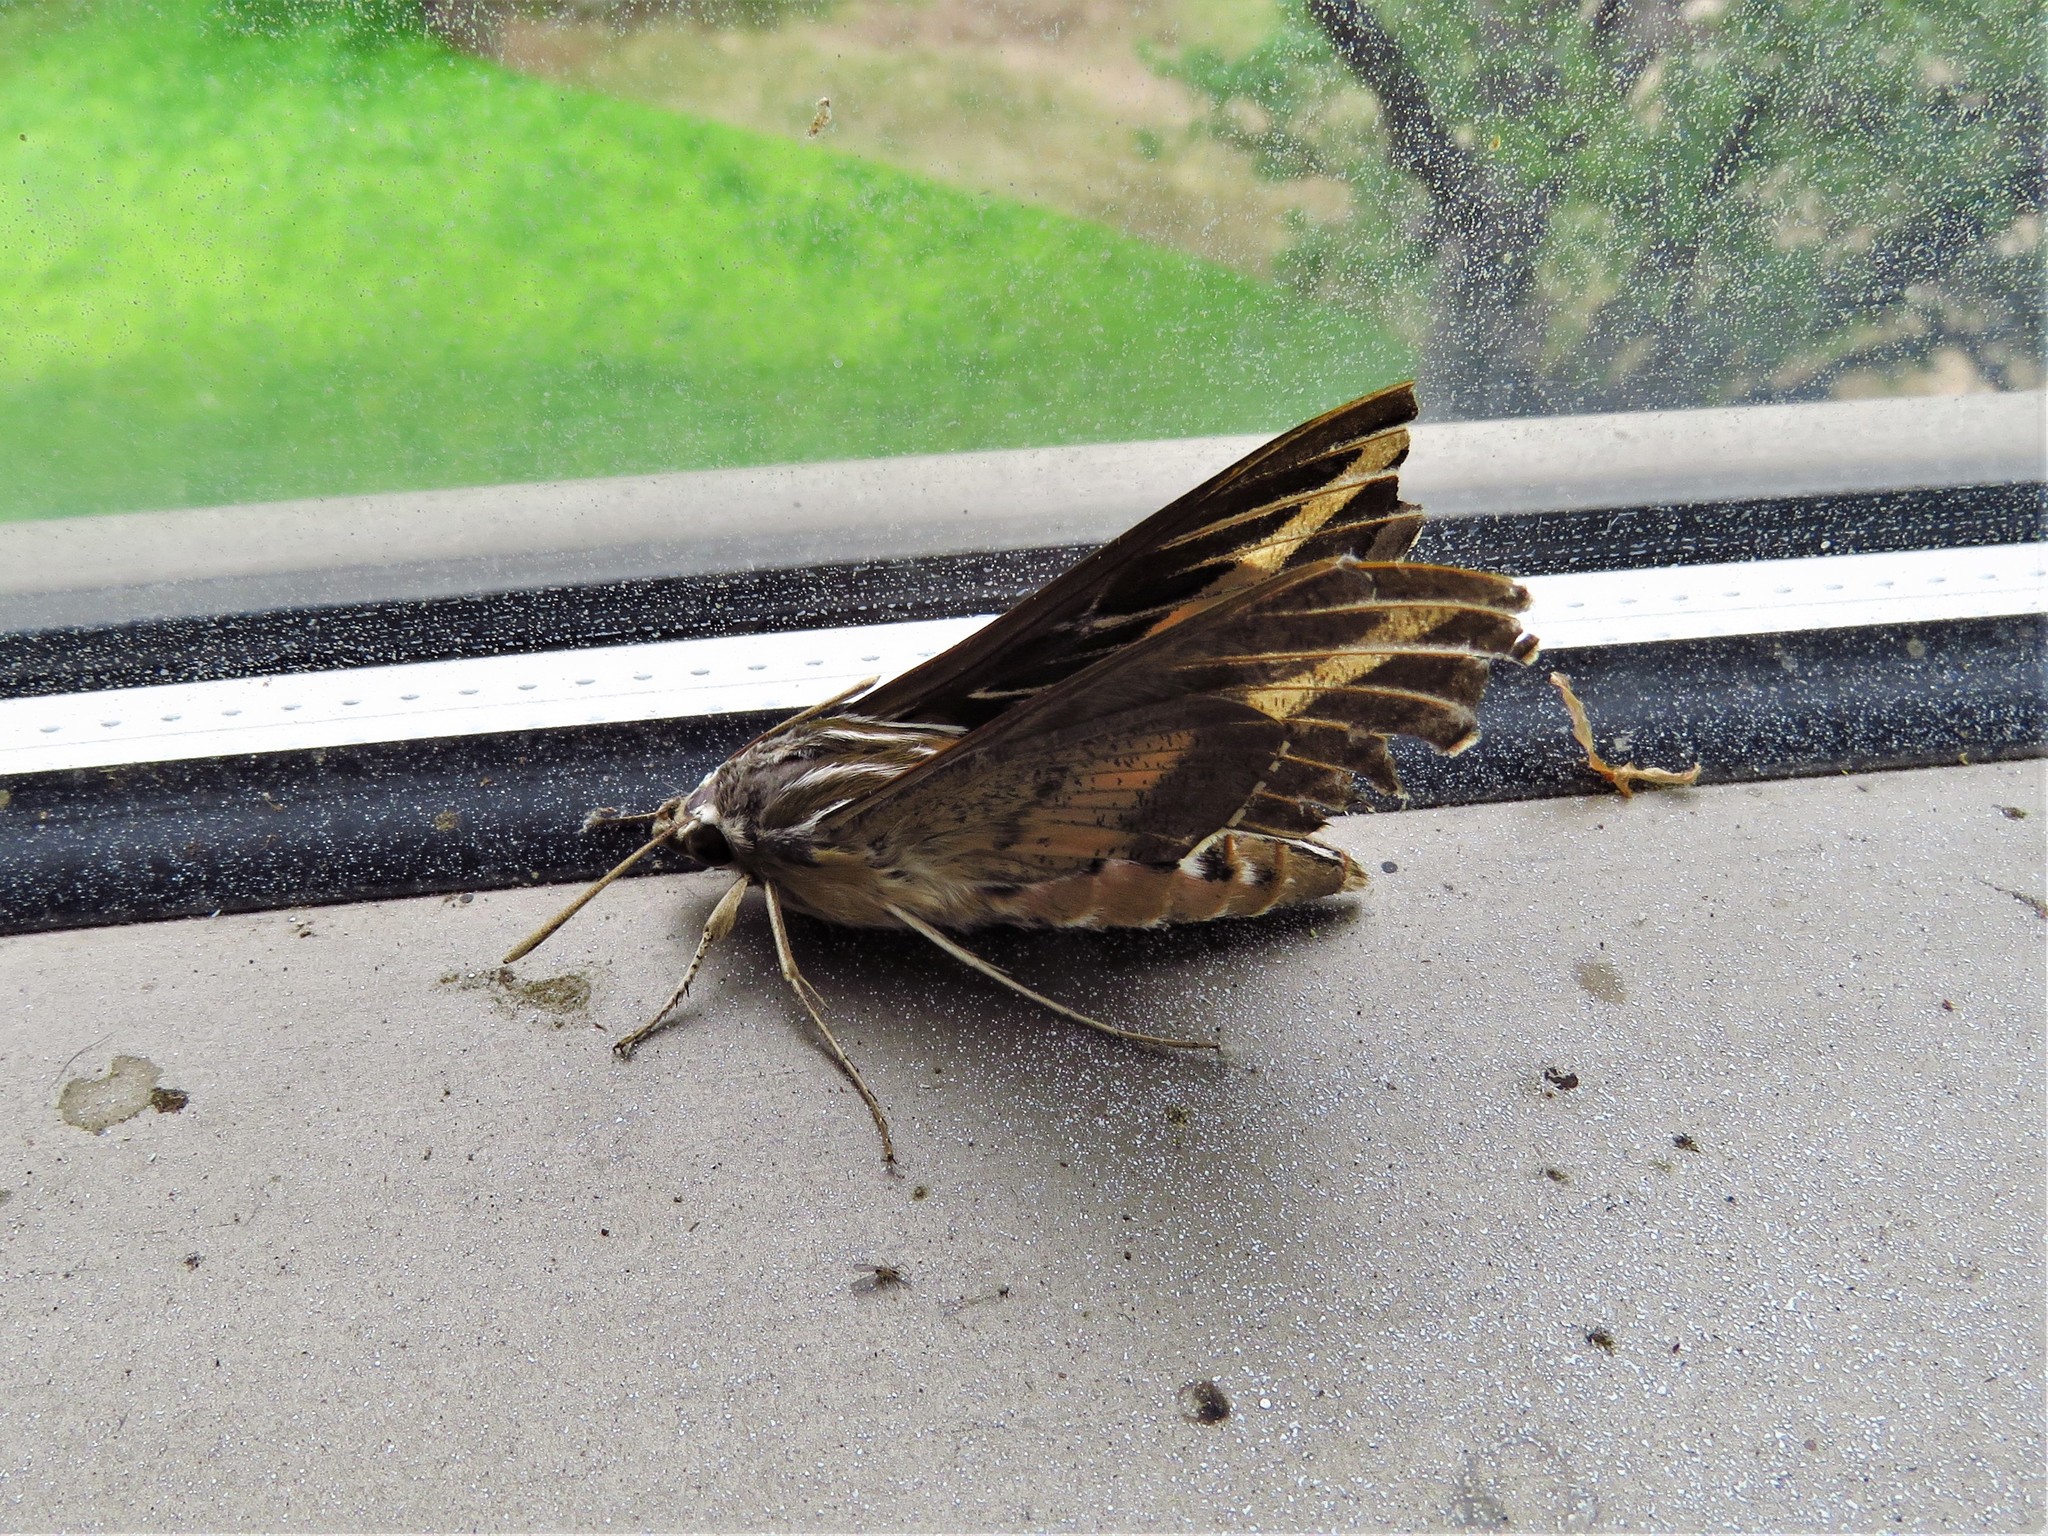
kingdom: Animalia
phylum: Arthropoda
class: Insecta
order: Lepidoptera
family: Sphingidae
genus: Hyles
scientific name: Hyles lineata
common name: White-lined sphinx
